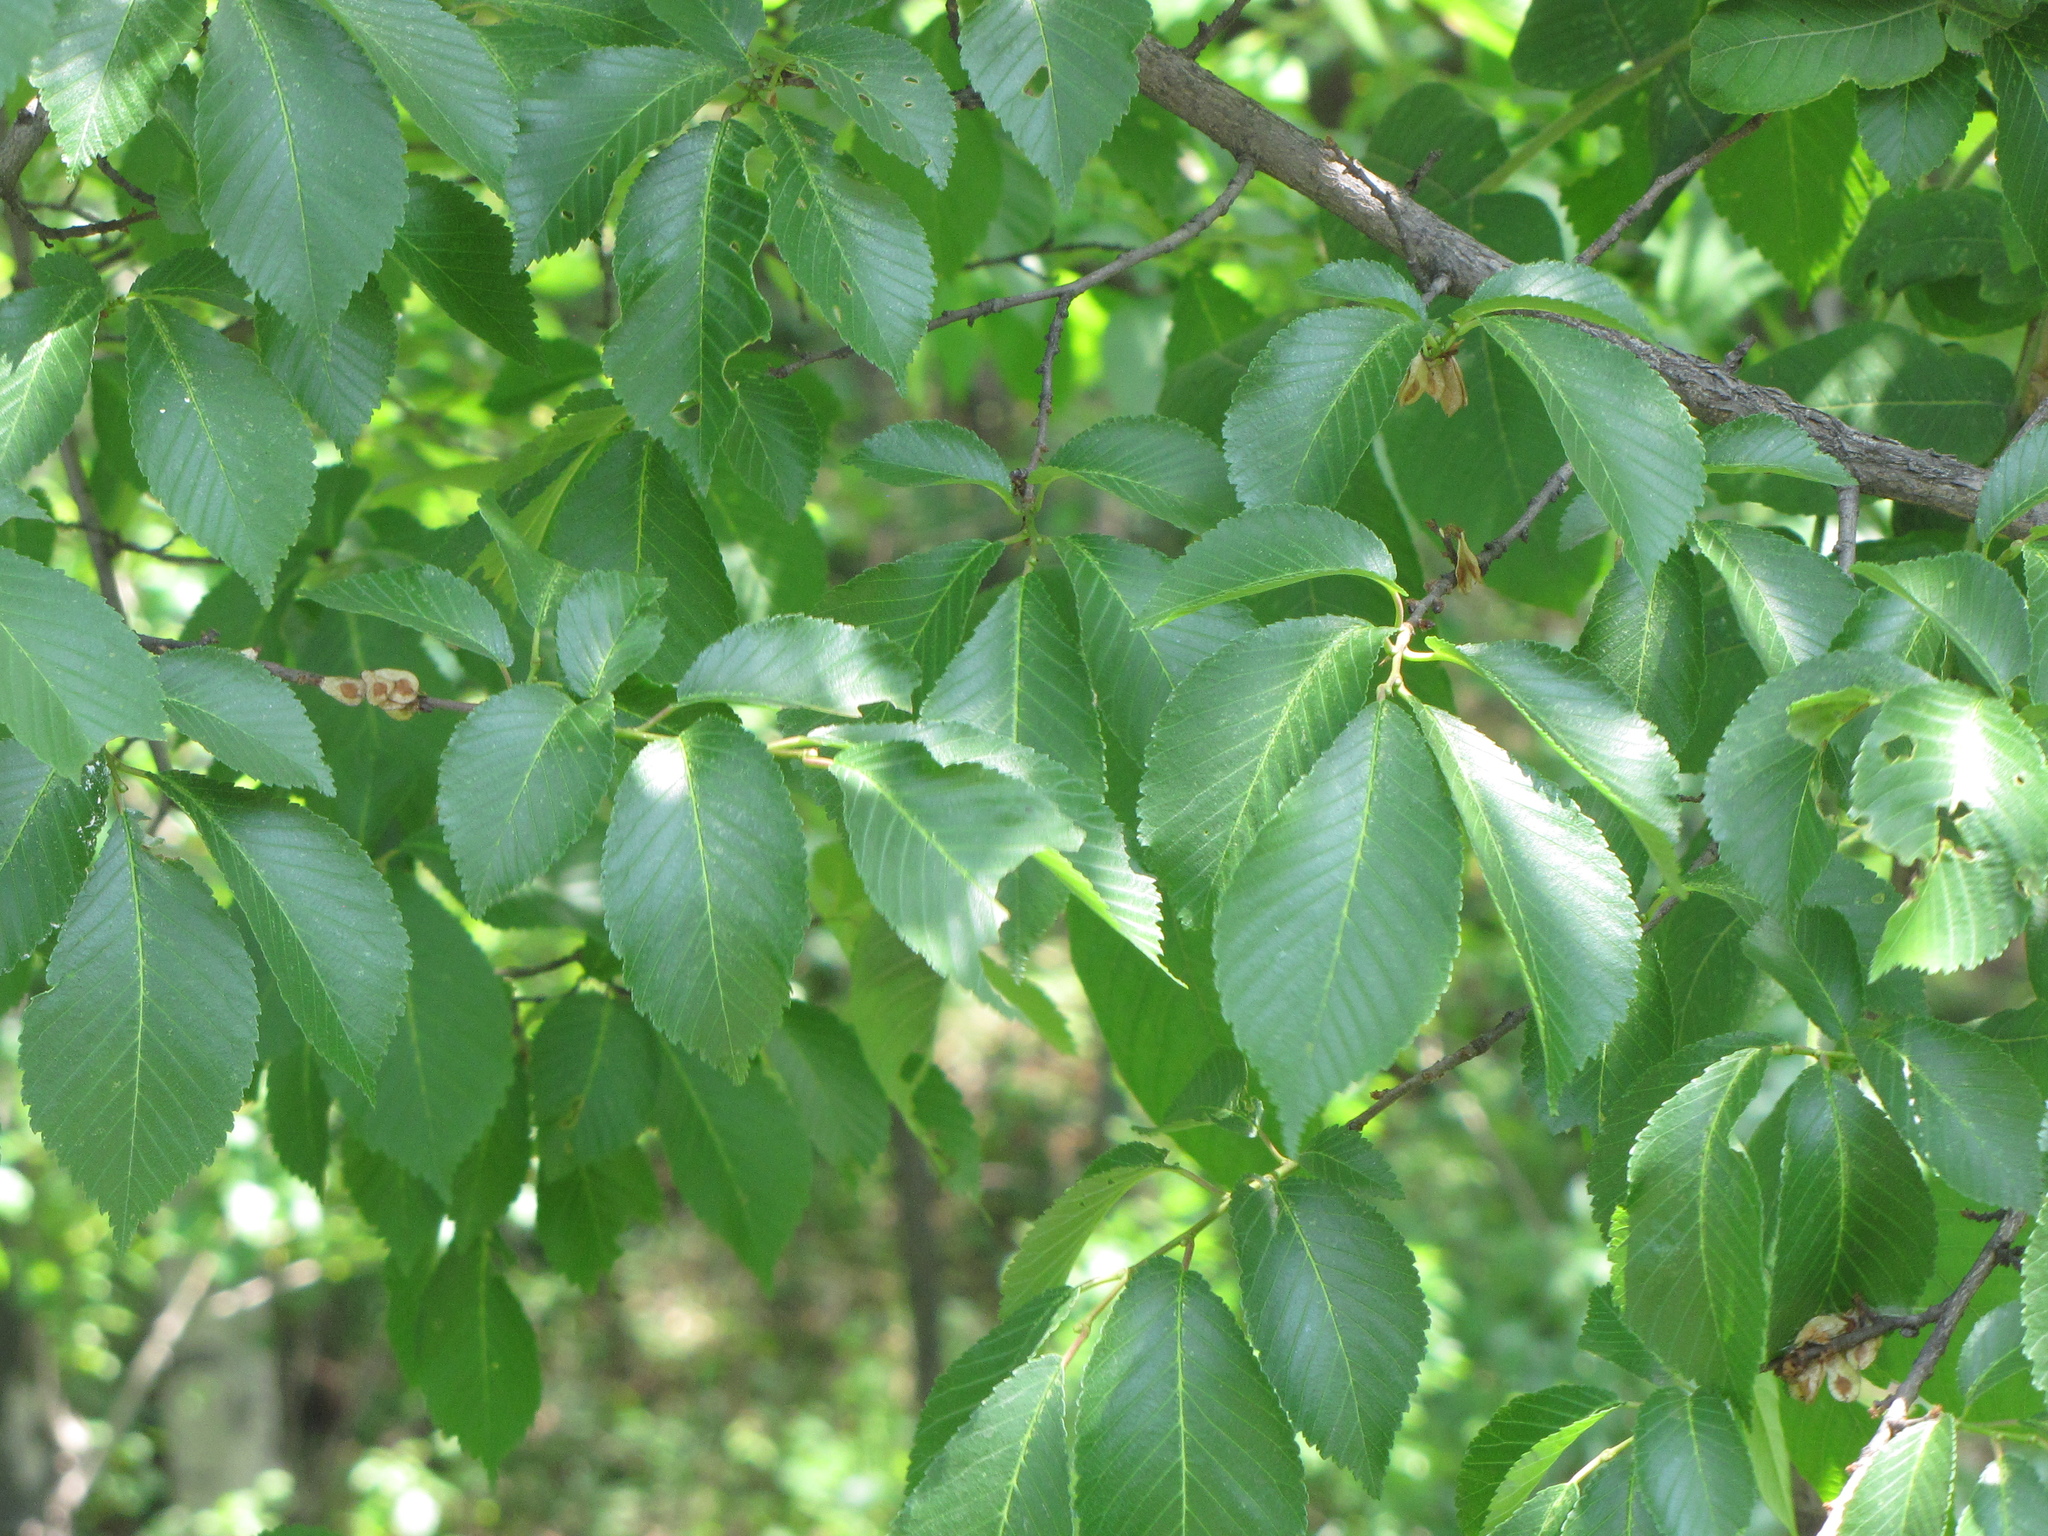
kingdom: Plantae
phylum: Tracheophyta
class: Magnoliopsida
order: Rosales
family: Ulmaceae
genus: Ulmus
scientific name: Ulmus davidiana
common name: Japanese elm
